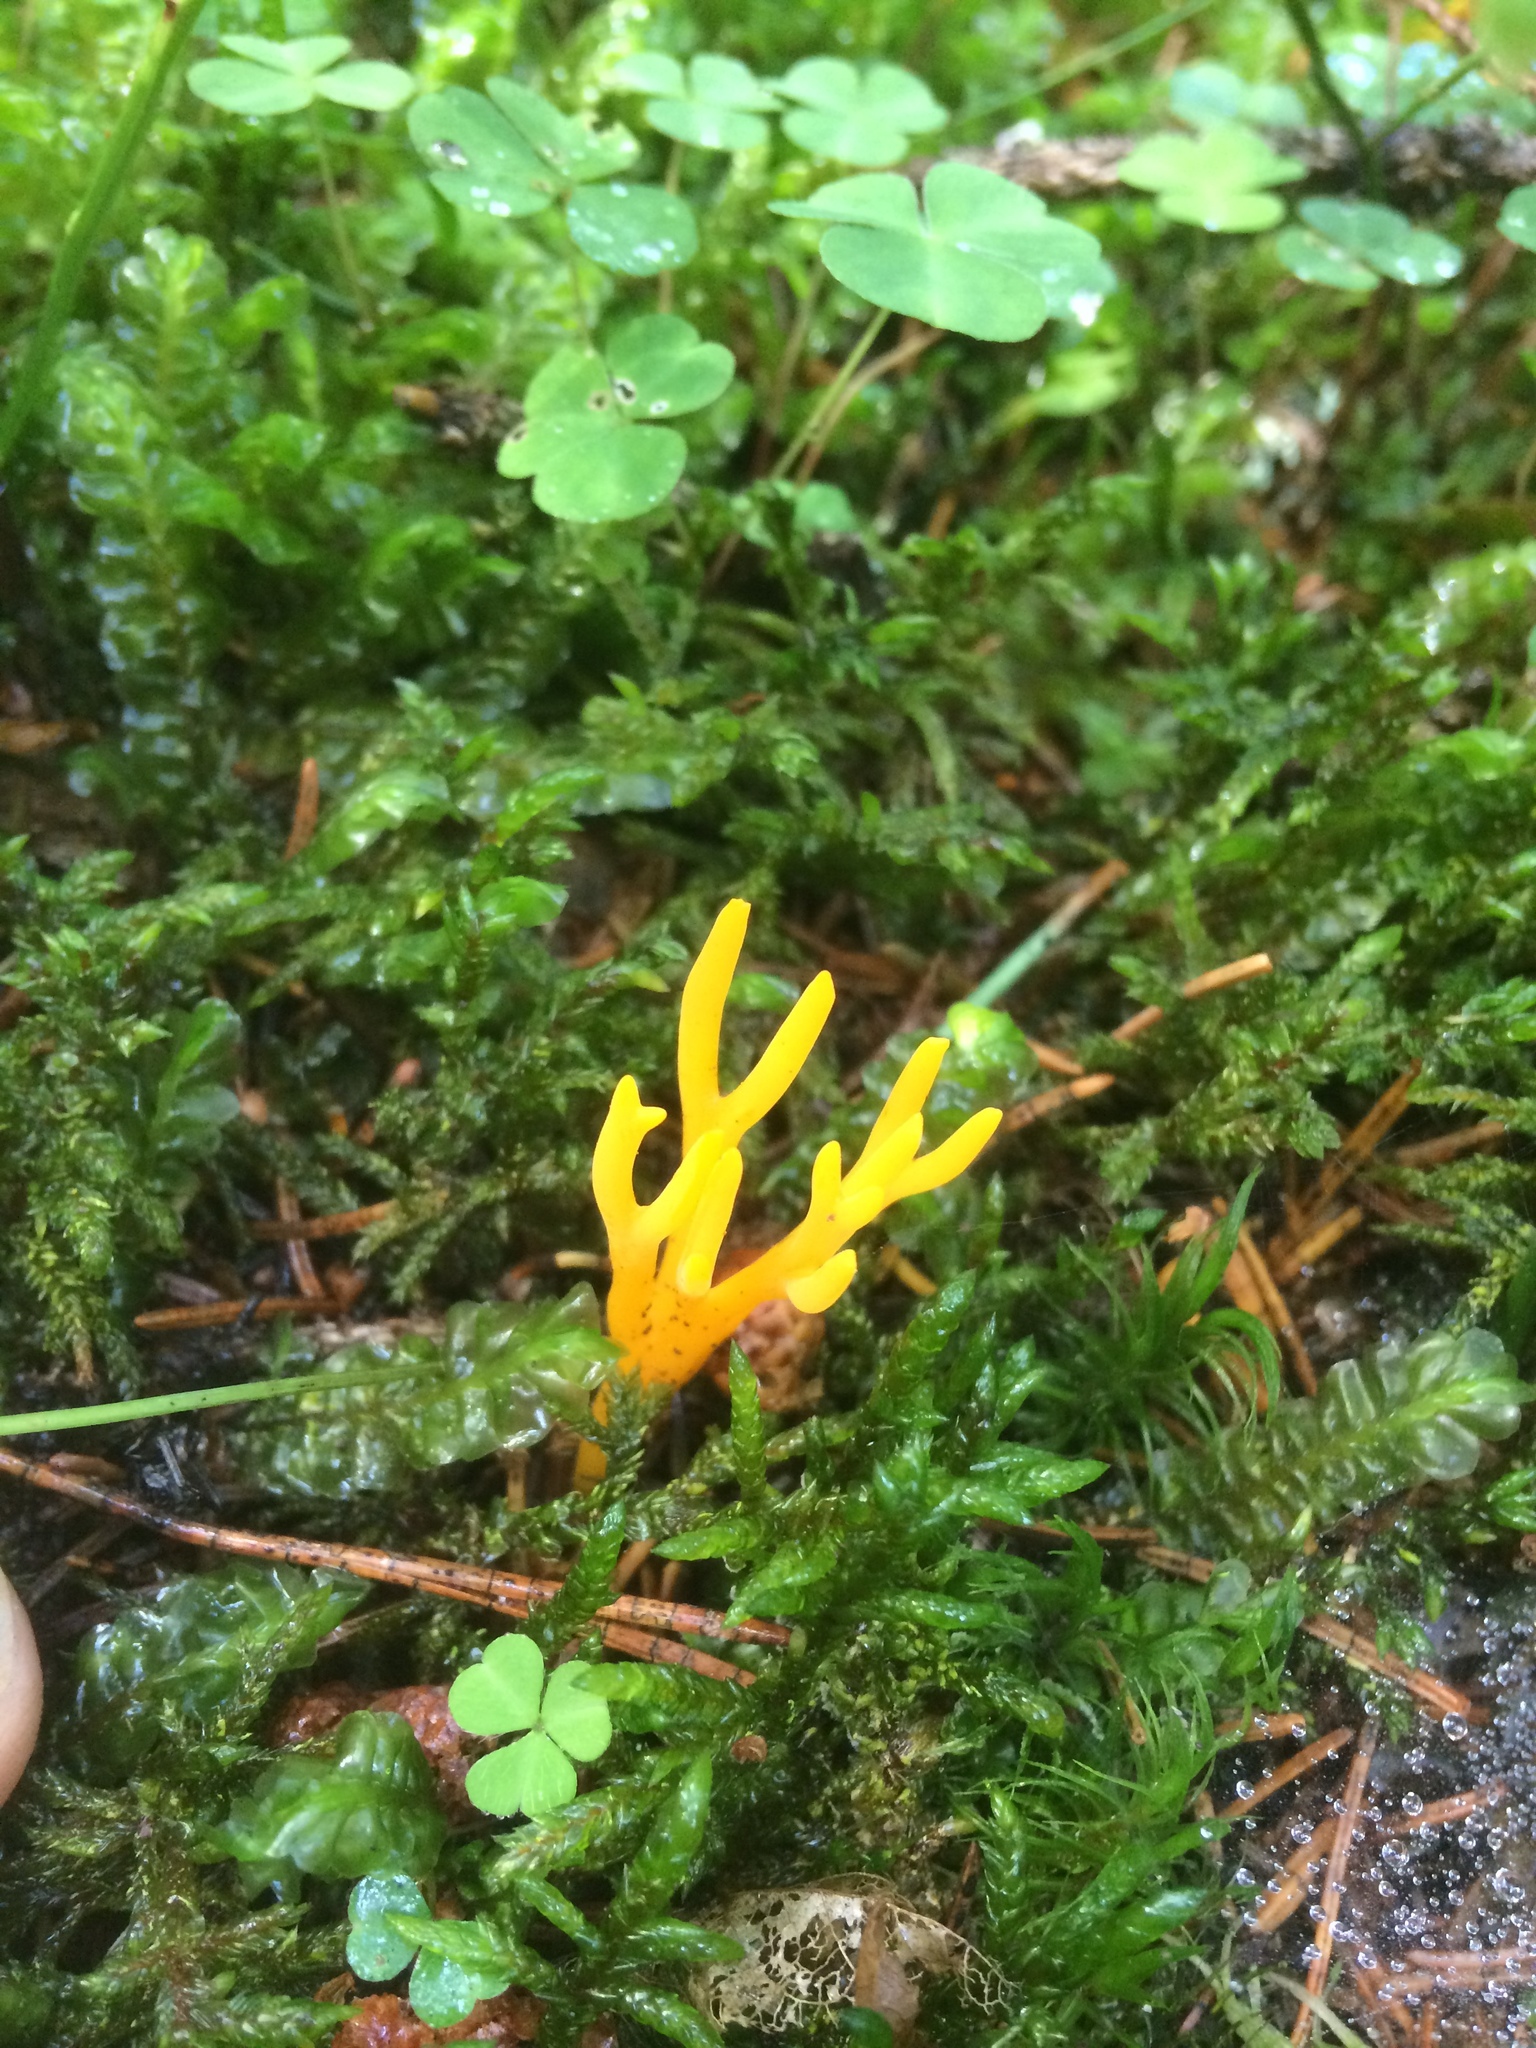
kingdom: Fungi
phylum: Basidiomycota
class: Dacrymycetes
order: Dacrymycetales
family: Dacrymycetaceae
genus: Calocera
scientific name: Calocera viscosa
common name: Yellow stagshorn
